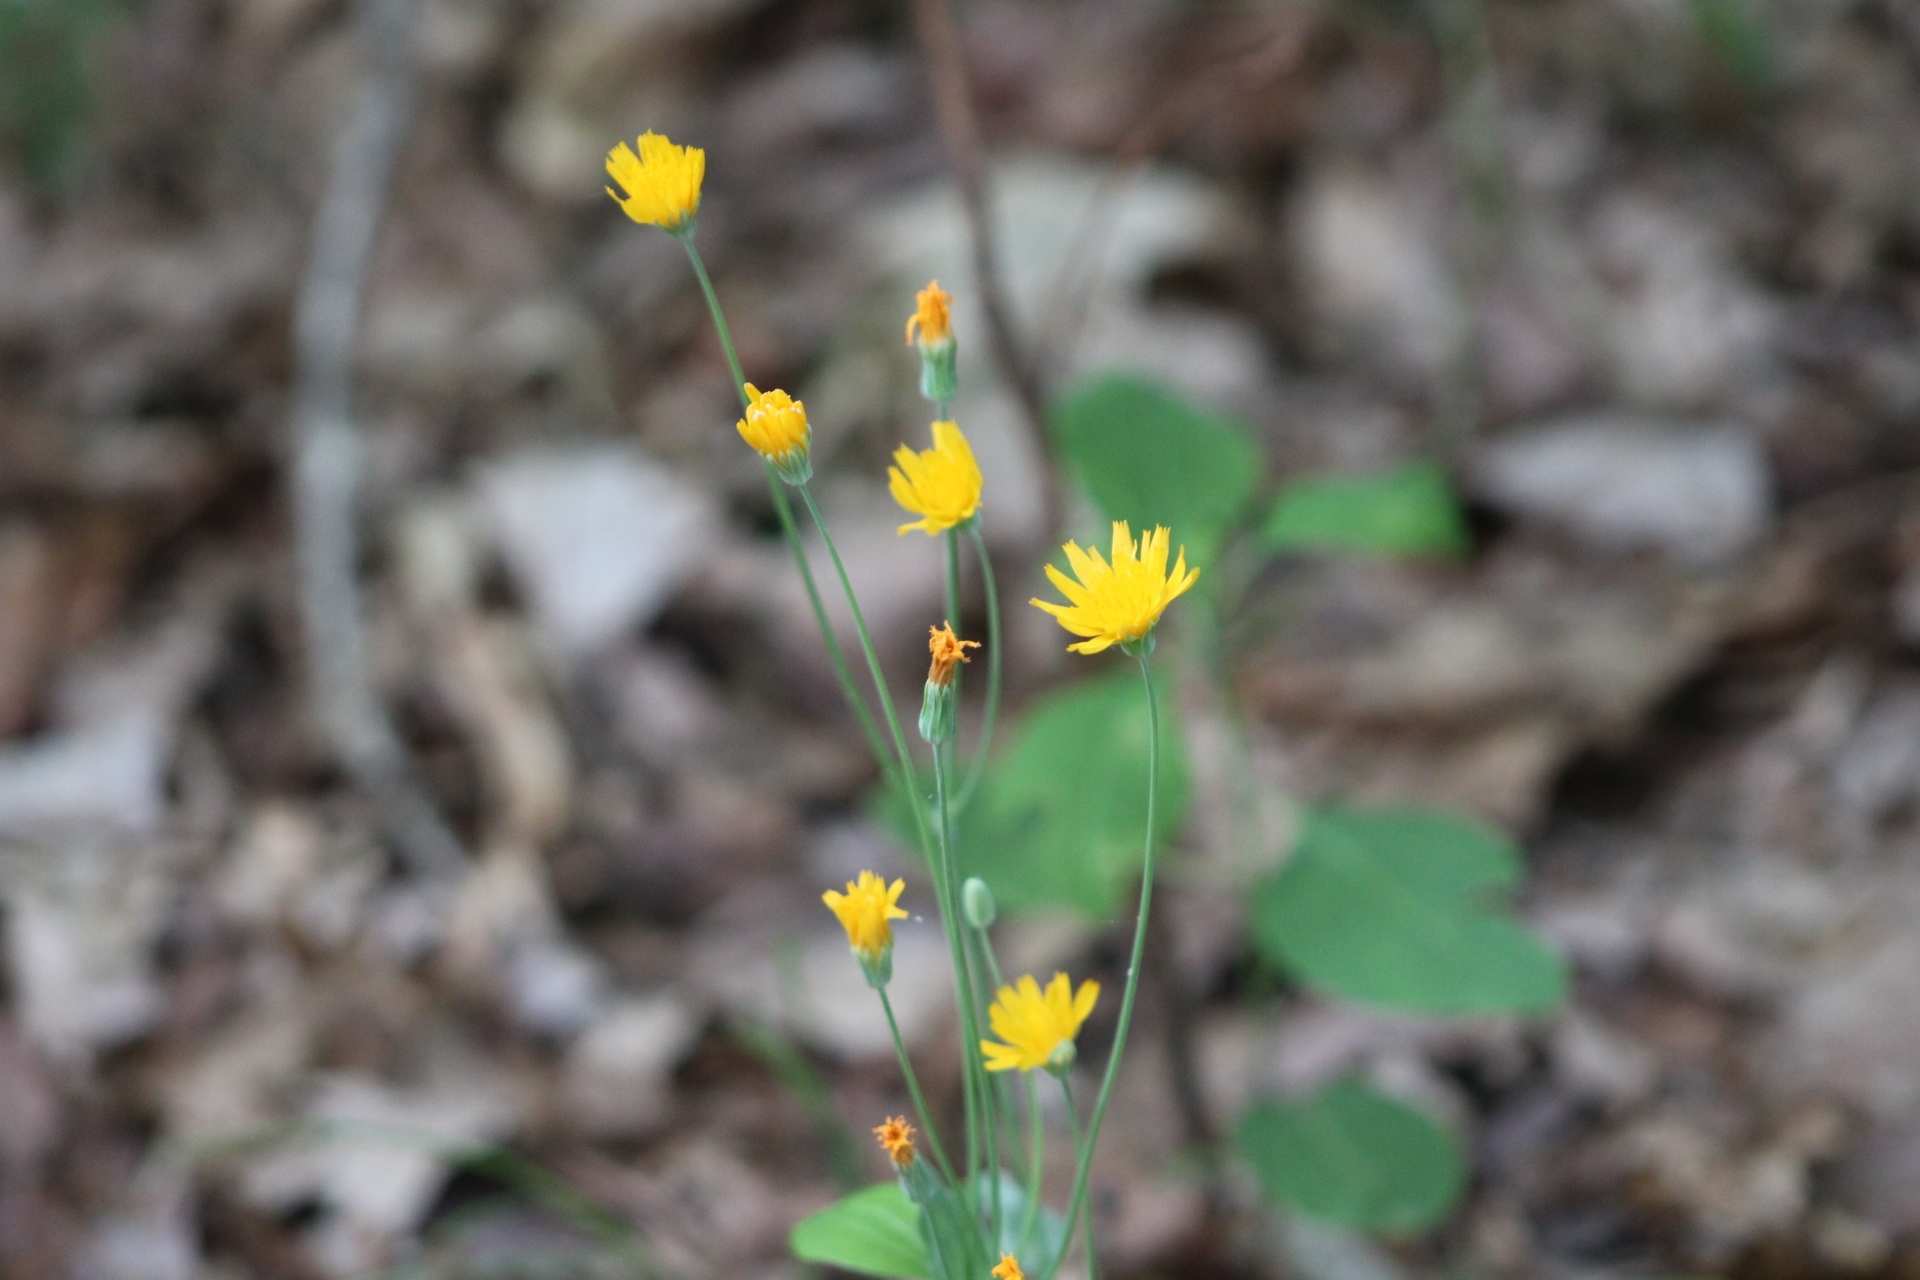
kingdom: Plantae
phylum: Tracheophyta
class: Magnoliopsida
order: Asterales
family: Asteraceae
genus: Krigia
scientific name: Krigia biflora
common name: Orange dwarf-dandelion
